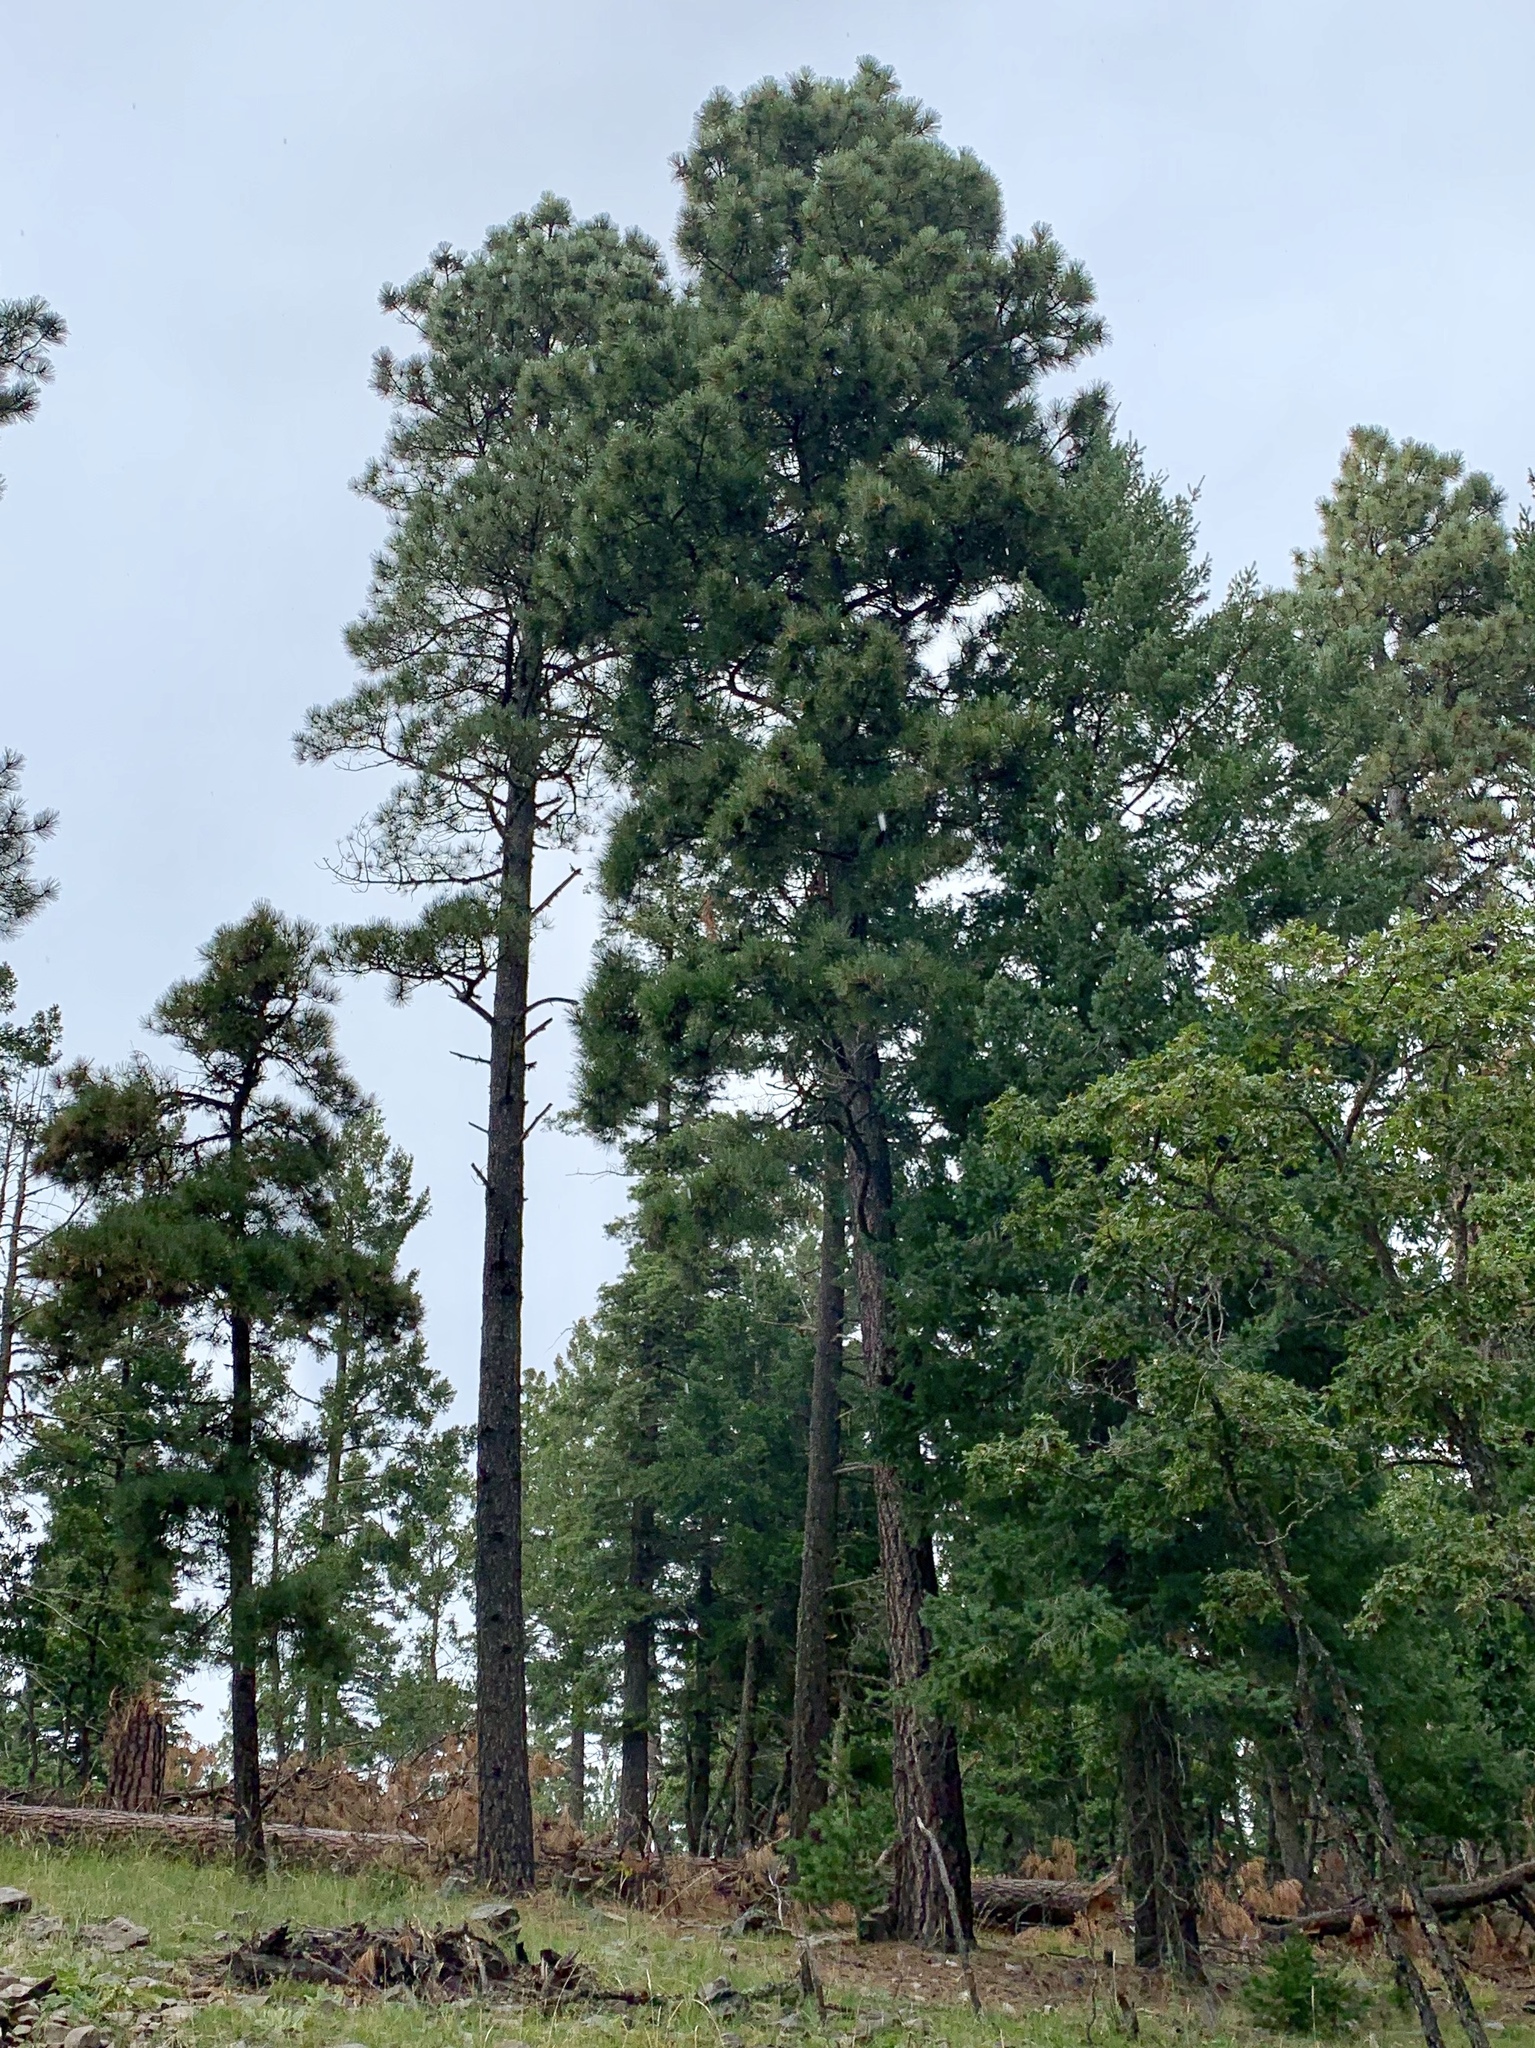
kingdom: Plantae
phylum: Tracheophyta
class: Pinopsida
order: Pinales
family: Pinaceae
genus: Pinus
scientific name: Pinus ponderosa
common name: Western yellow-pine
